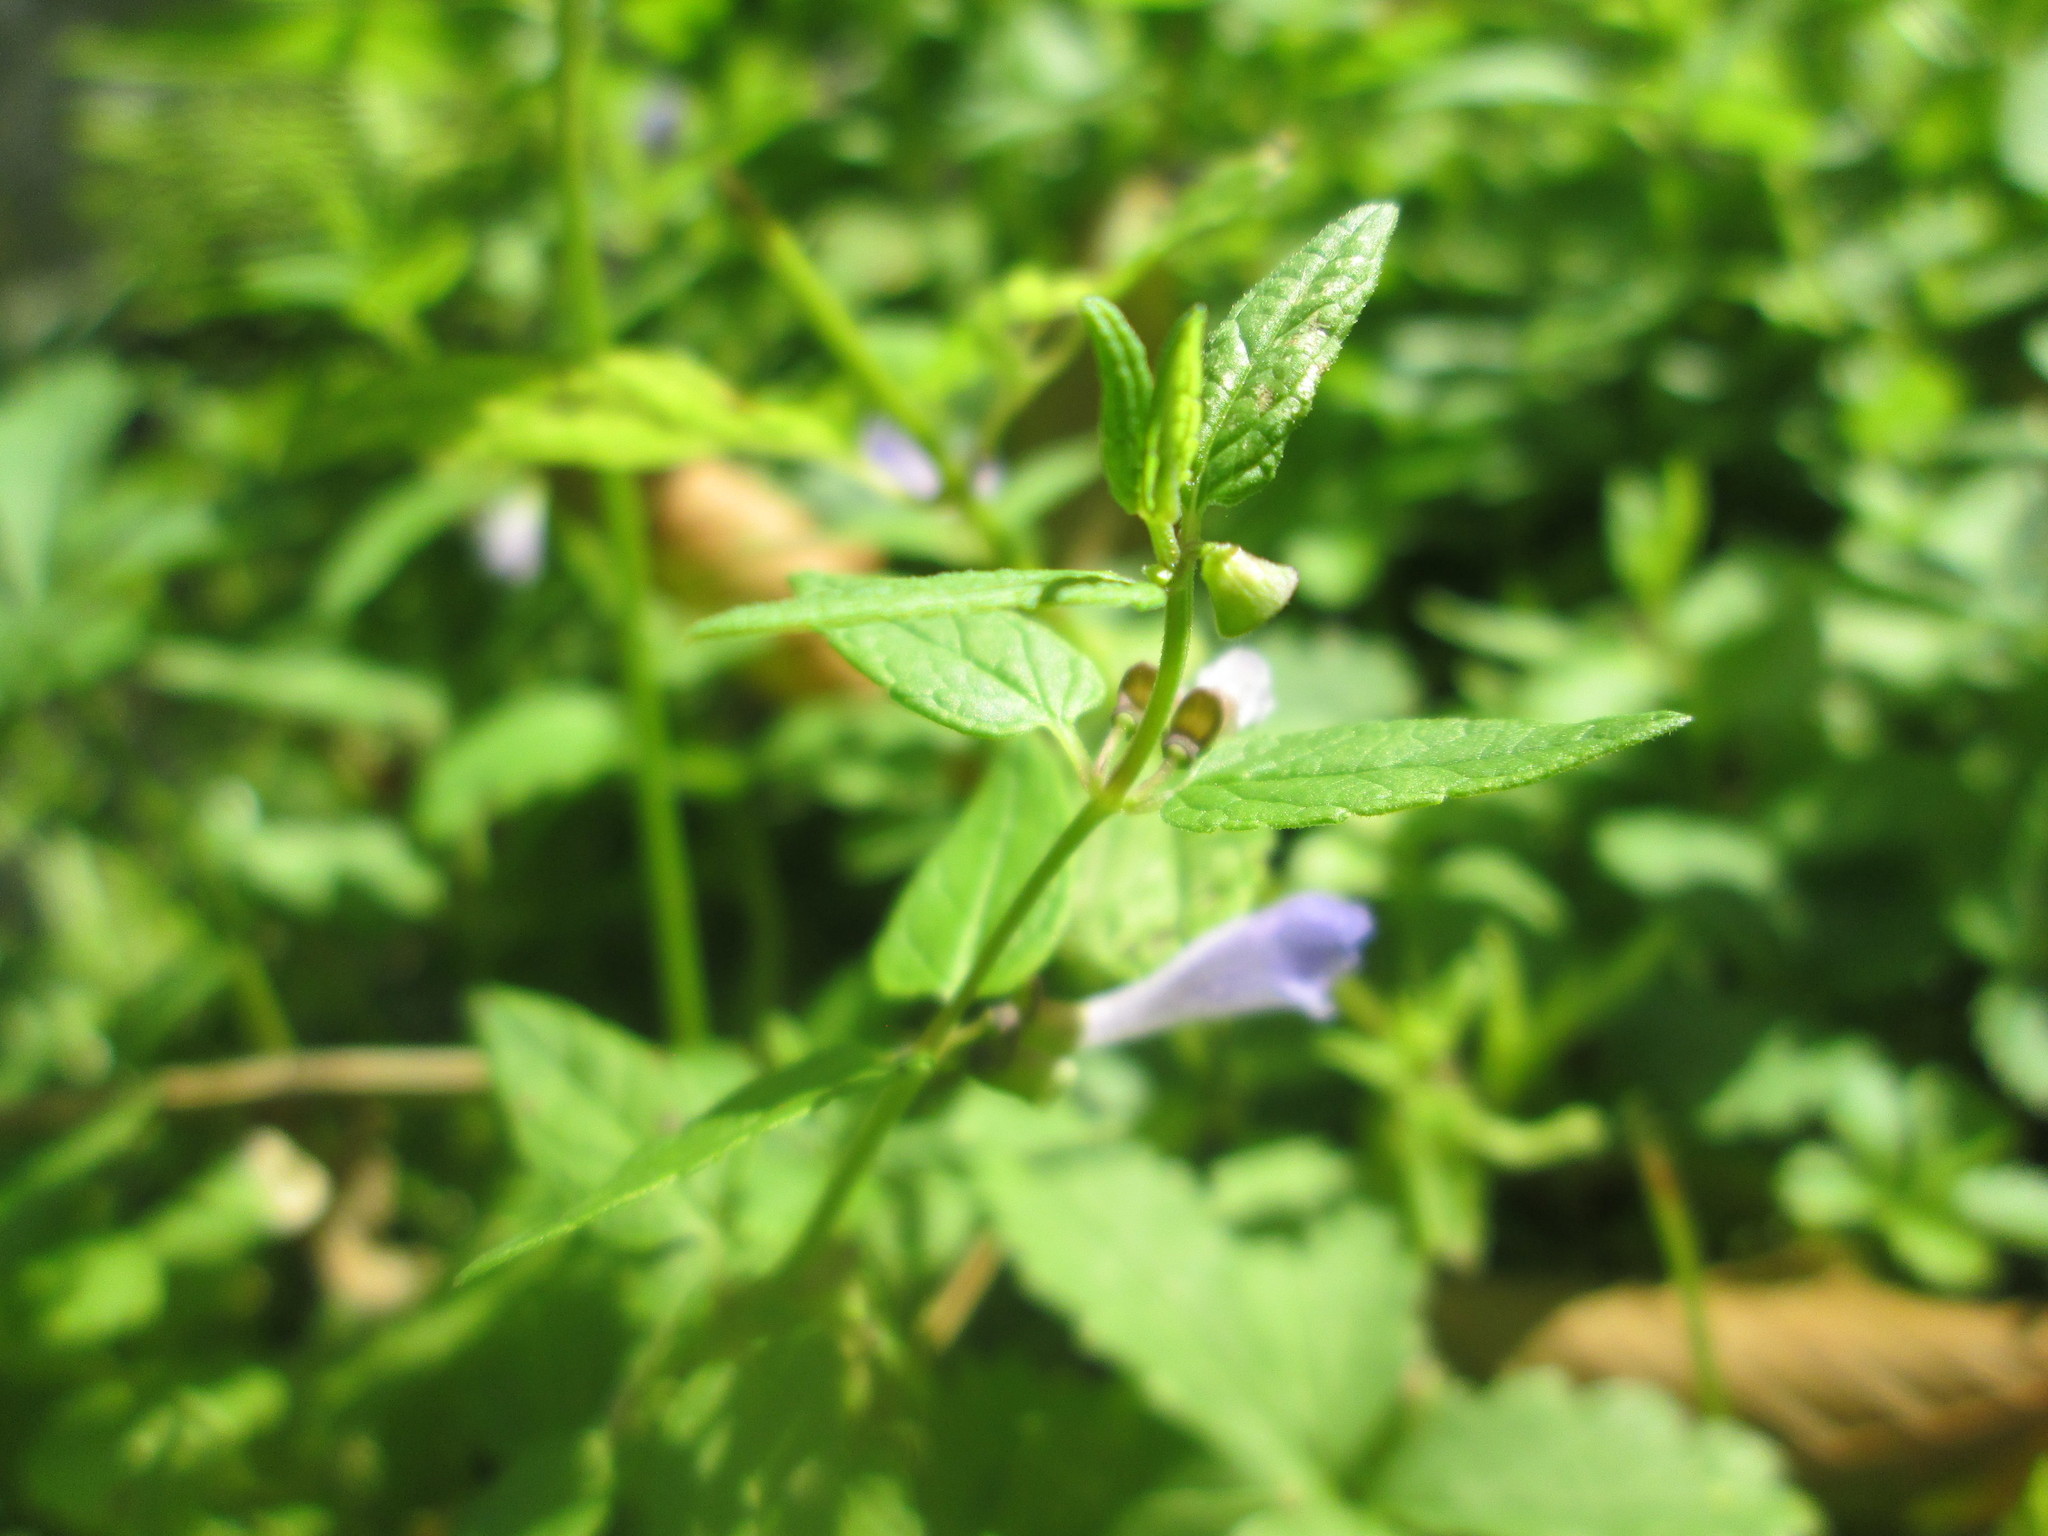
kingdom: Plantae
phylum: Tracheophyta
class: Magnoliopsida
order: Lamiales
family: Lamiaceae
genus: Scutellaria
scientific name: Scutellaria galericulata
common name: Skullcap
